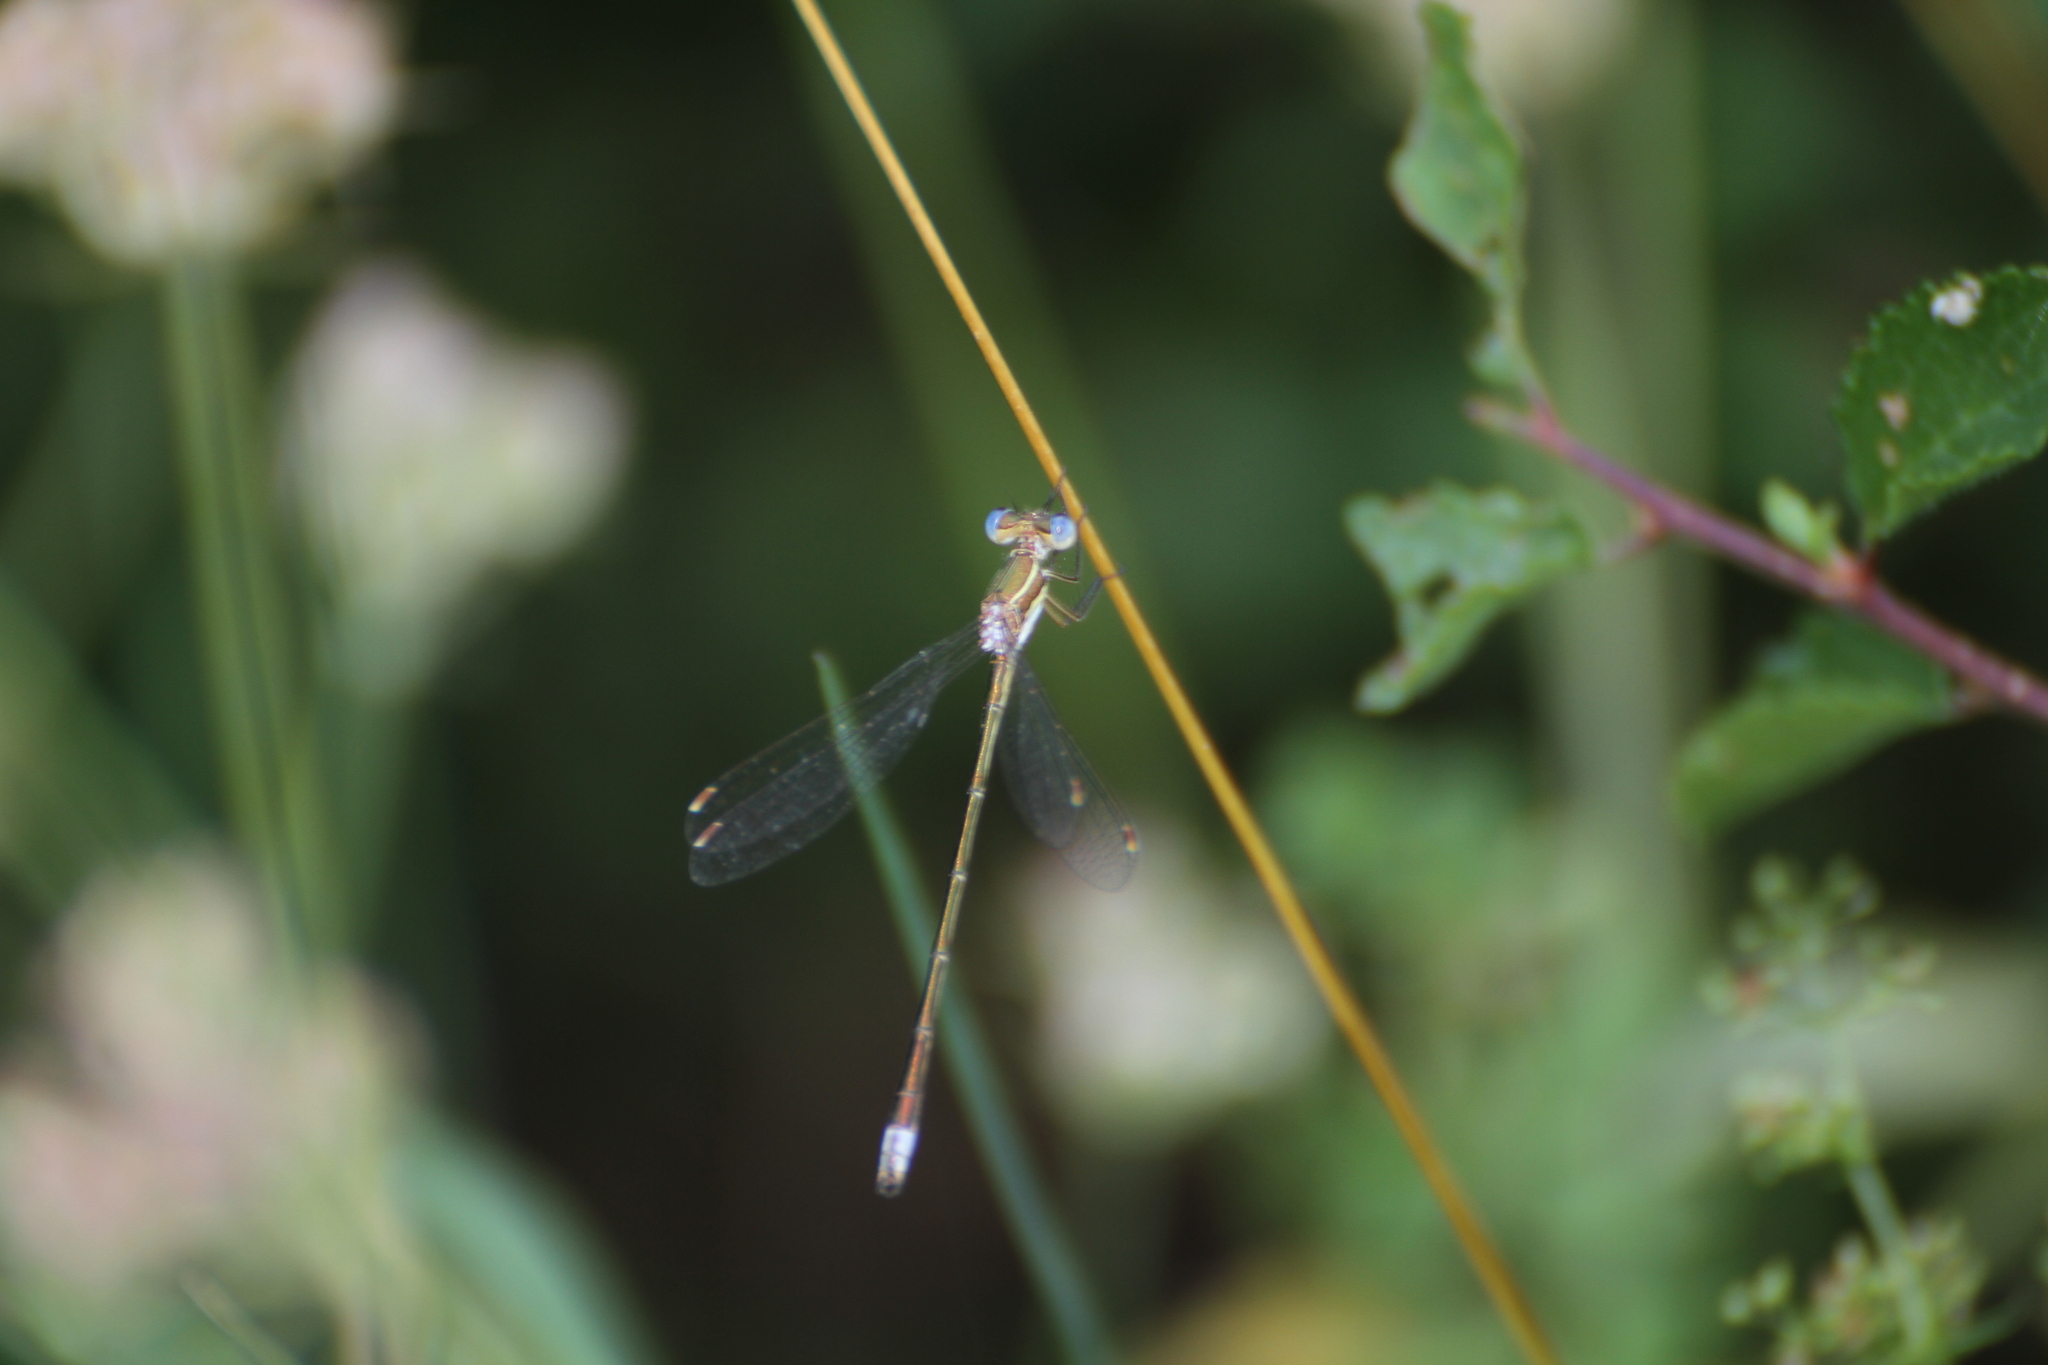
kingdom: Animalia
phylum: Arthropoda
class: Insecta
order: Odonata
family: Lestidae
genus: Lestes
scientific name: Lestes virens
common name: Small emerald spreadwing
